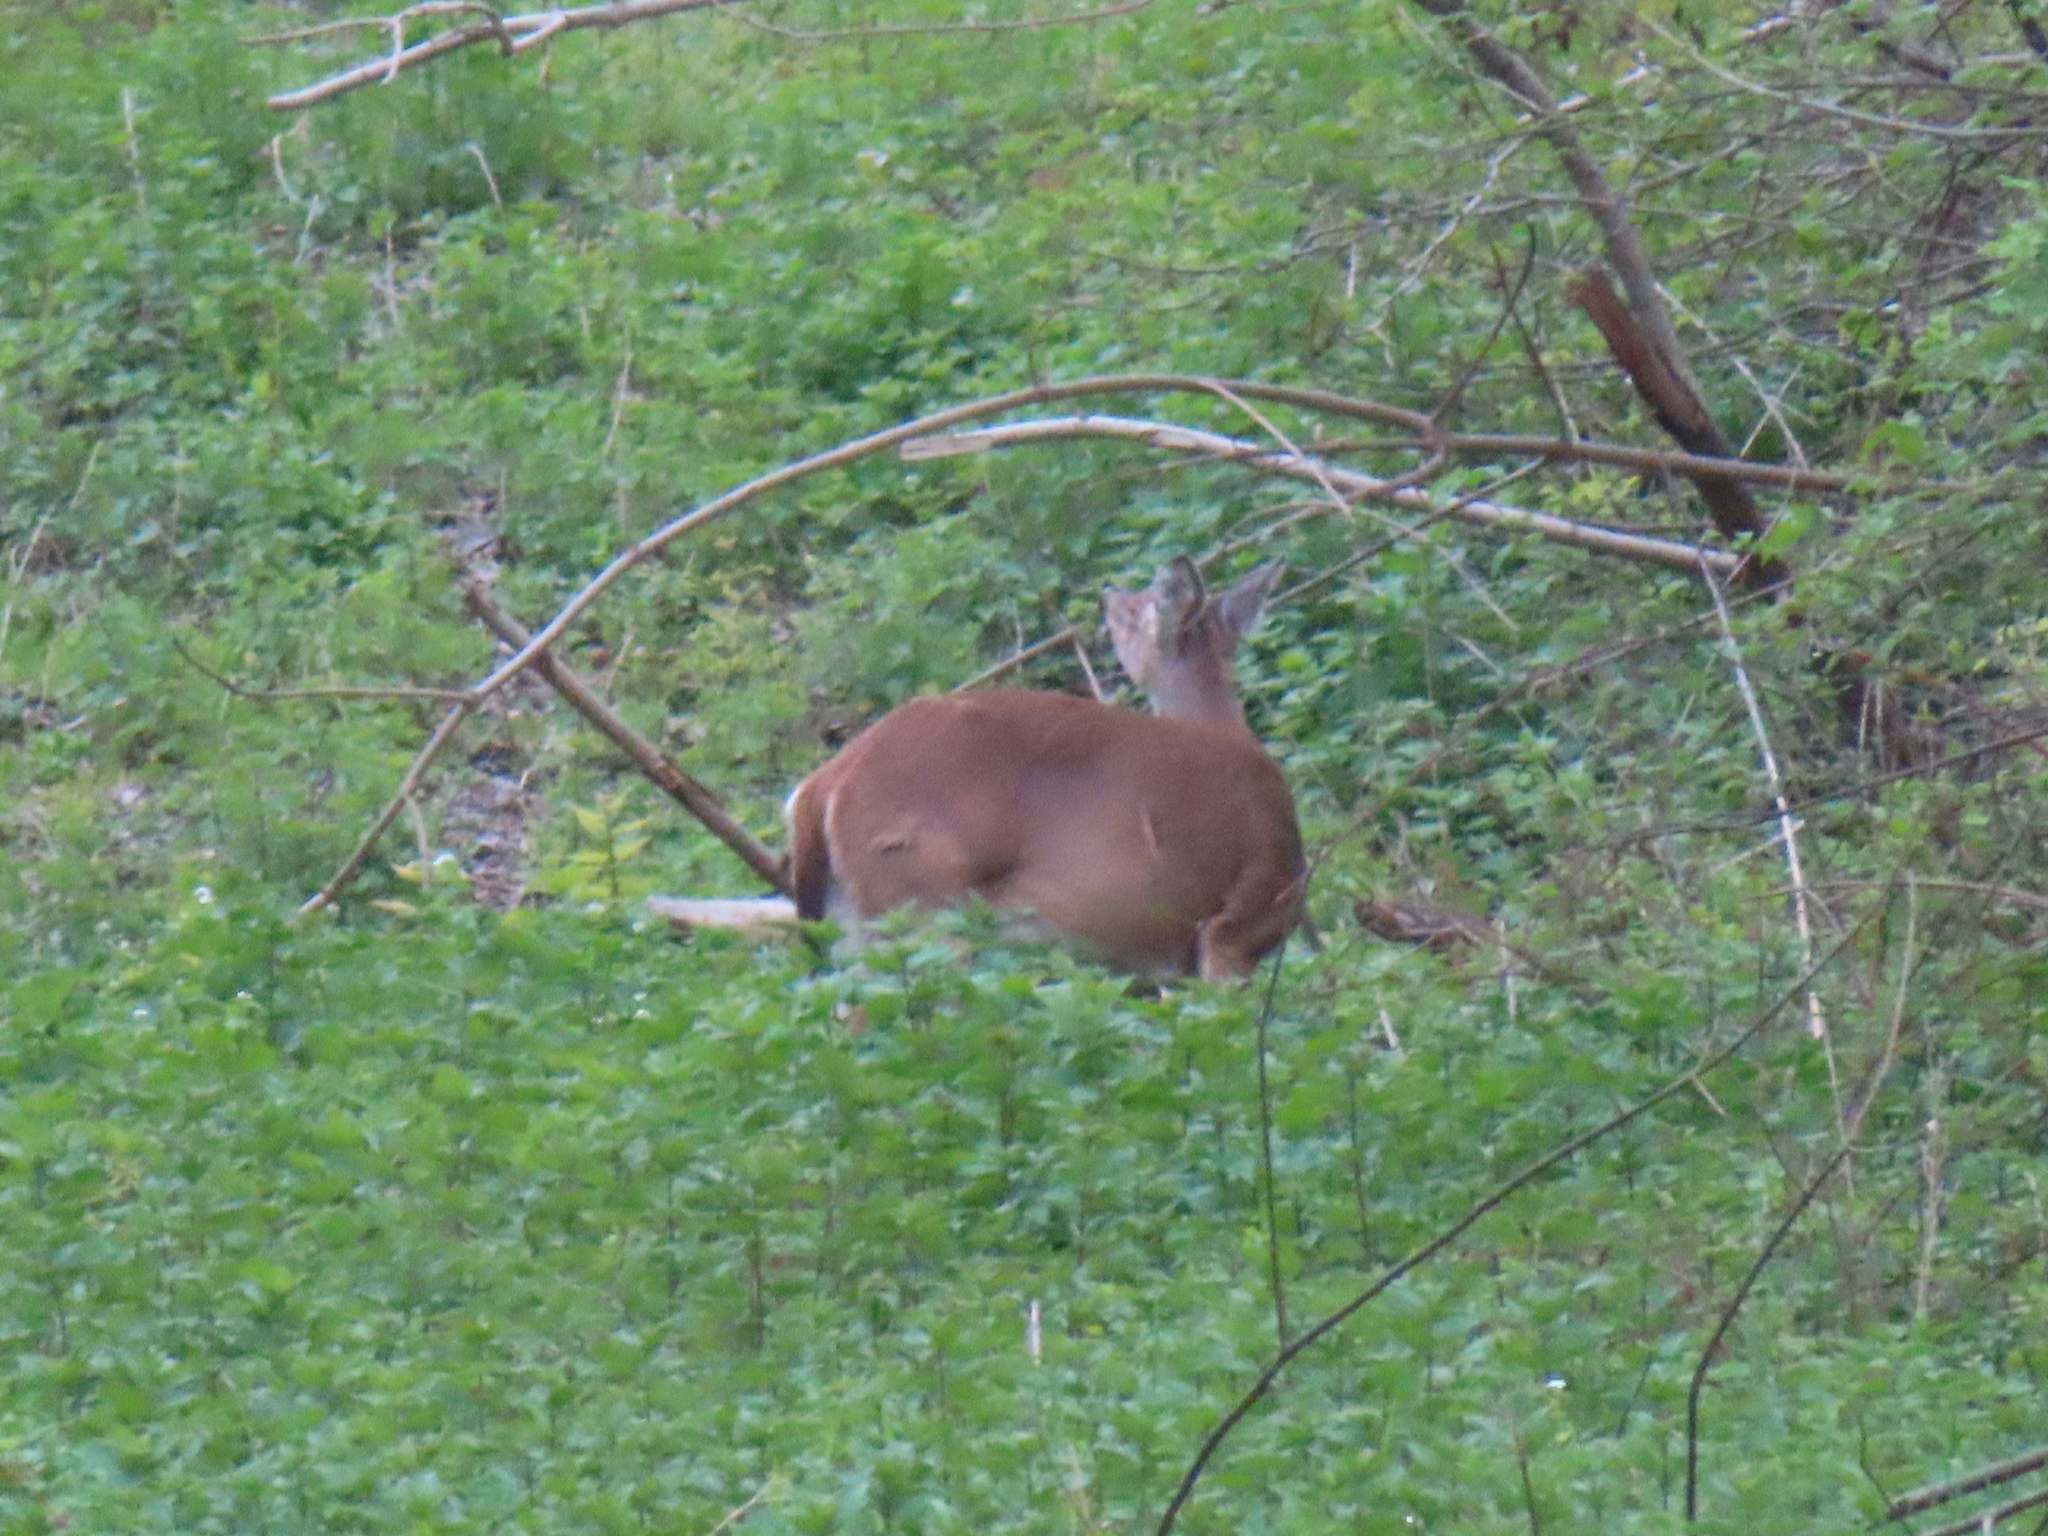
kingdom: Animalia
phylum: Chordata
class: Mammalia
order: Artiodactyla
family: Cervidae
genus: Odocoileus
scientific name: Odocoileus virginianus
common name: White-tailed deer
